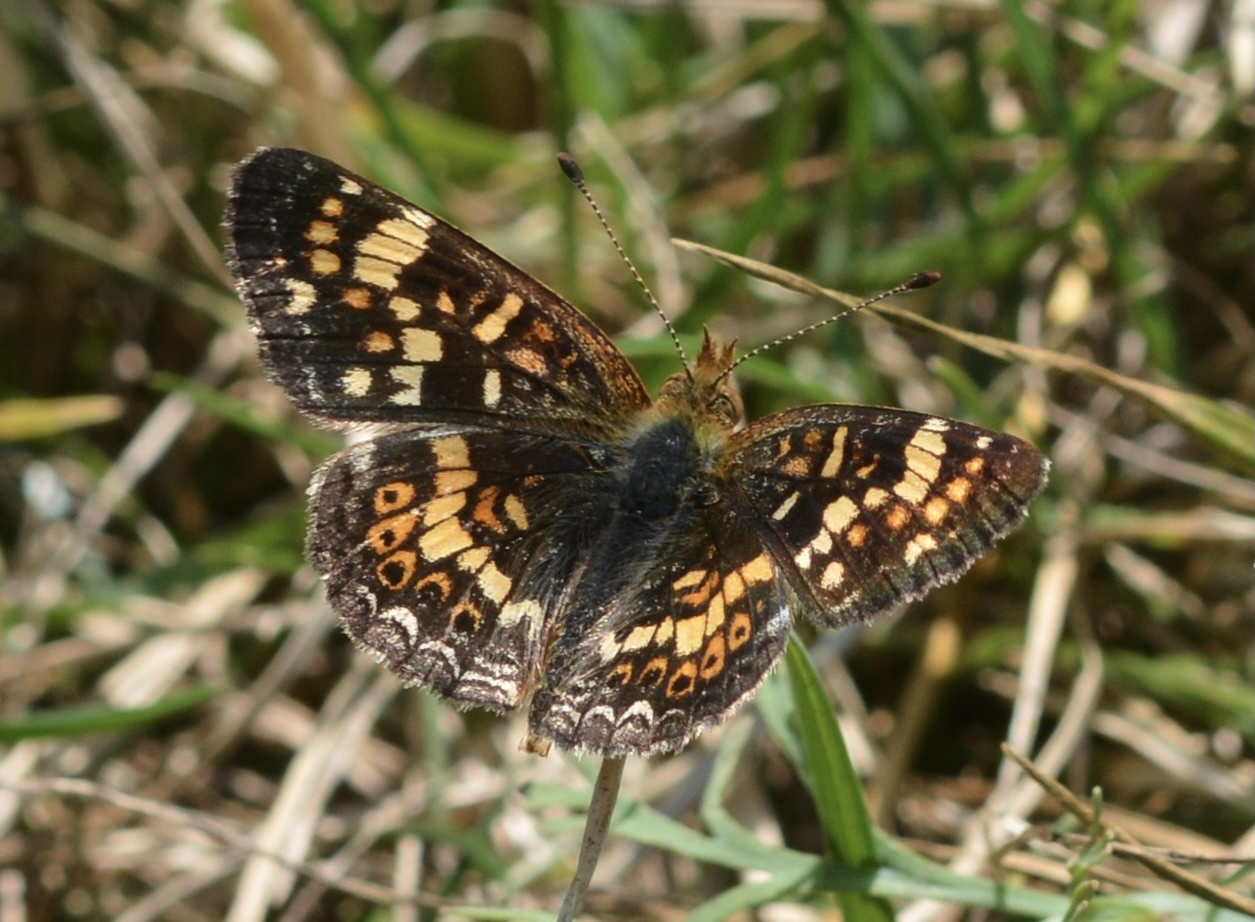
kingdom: Animalia
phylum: Arthropoda
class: Insecta
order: Lepidoptera
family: Nymphalidae
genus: Phyciodes
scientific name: Phyciodes tharos
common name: Pearl crescent
